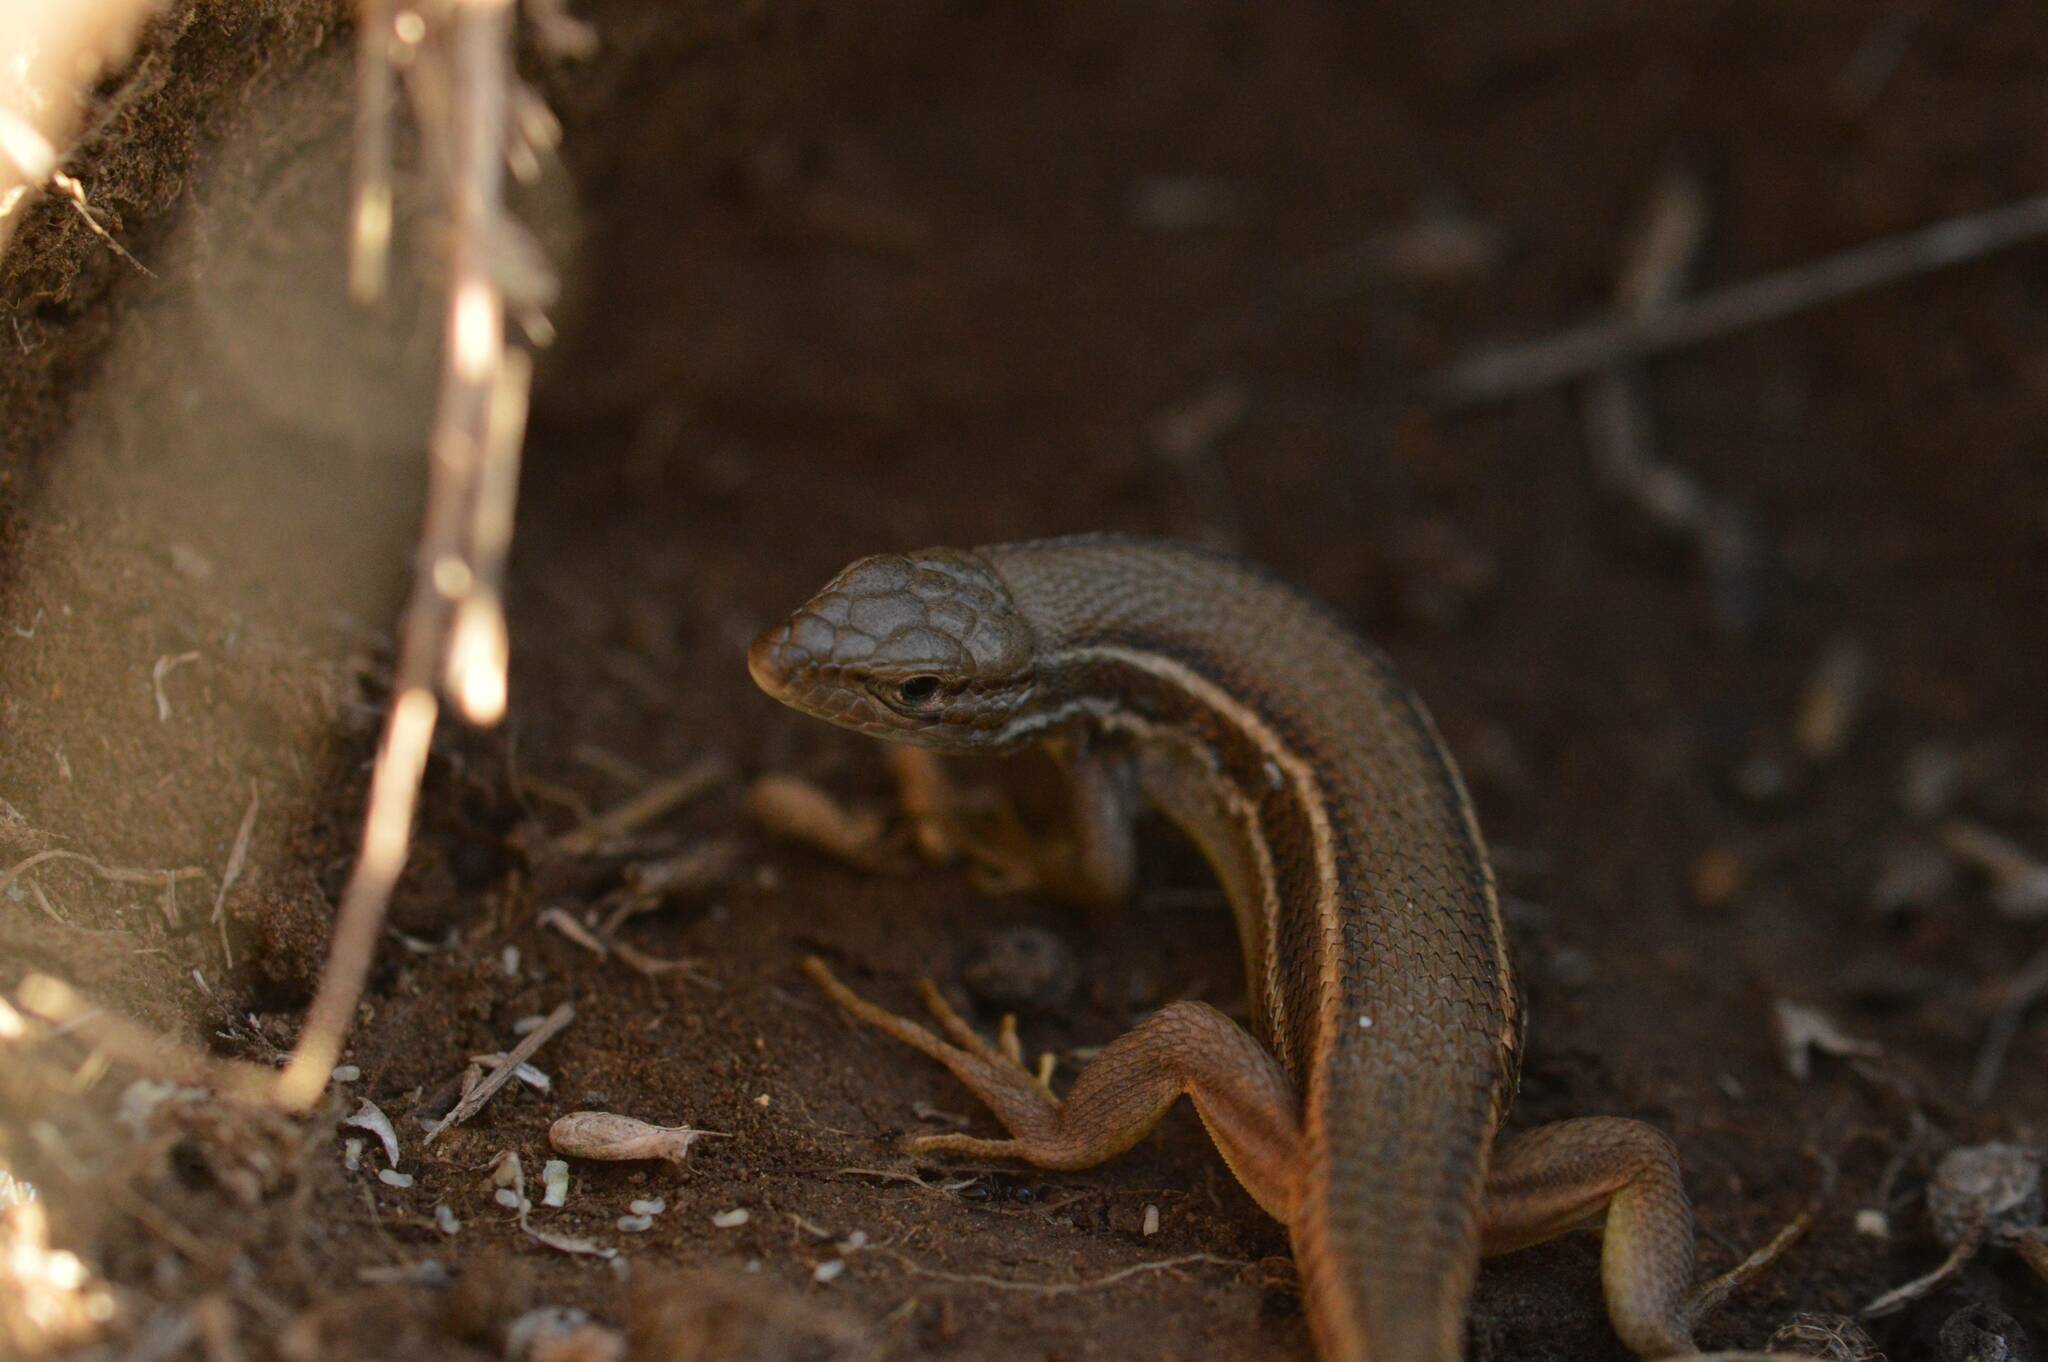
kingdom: Animalia
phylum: Chordata
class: Squamata
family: Lacertidae
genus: Psammodromus
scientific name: Psammodromus algirus
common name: Algerian psammodromus
